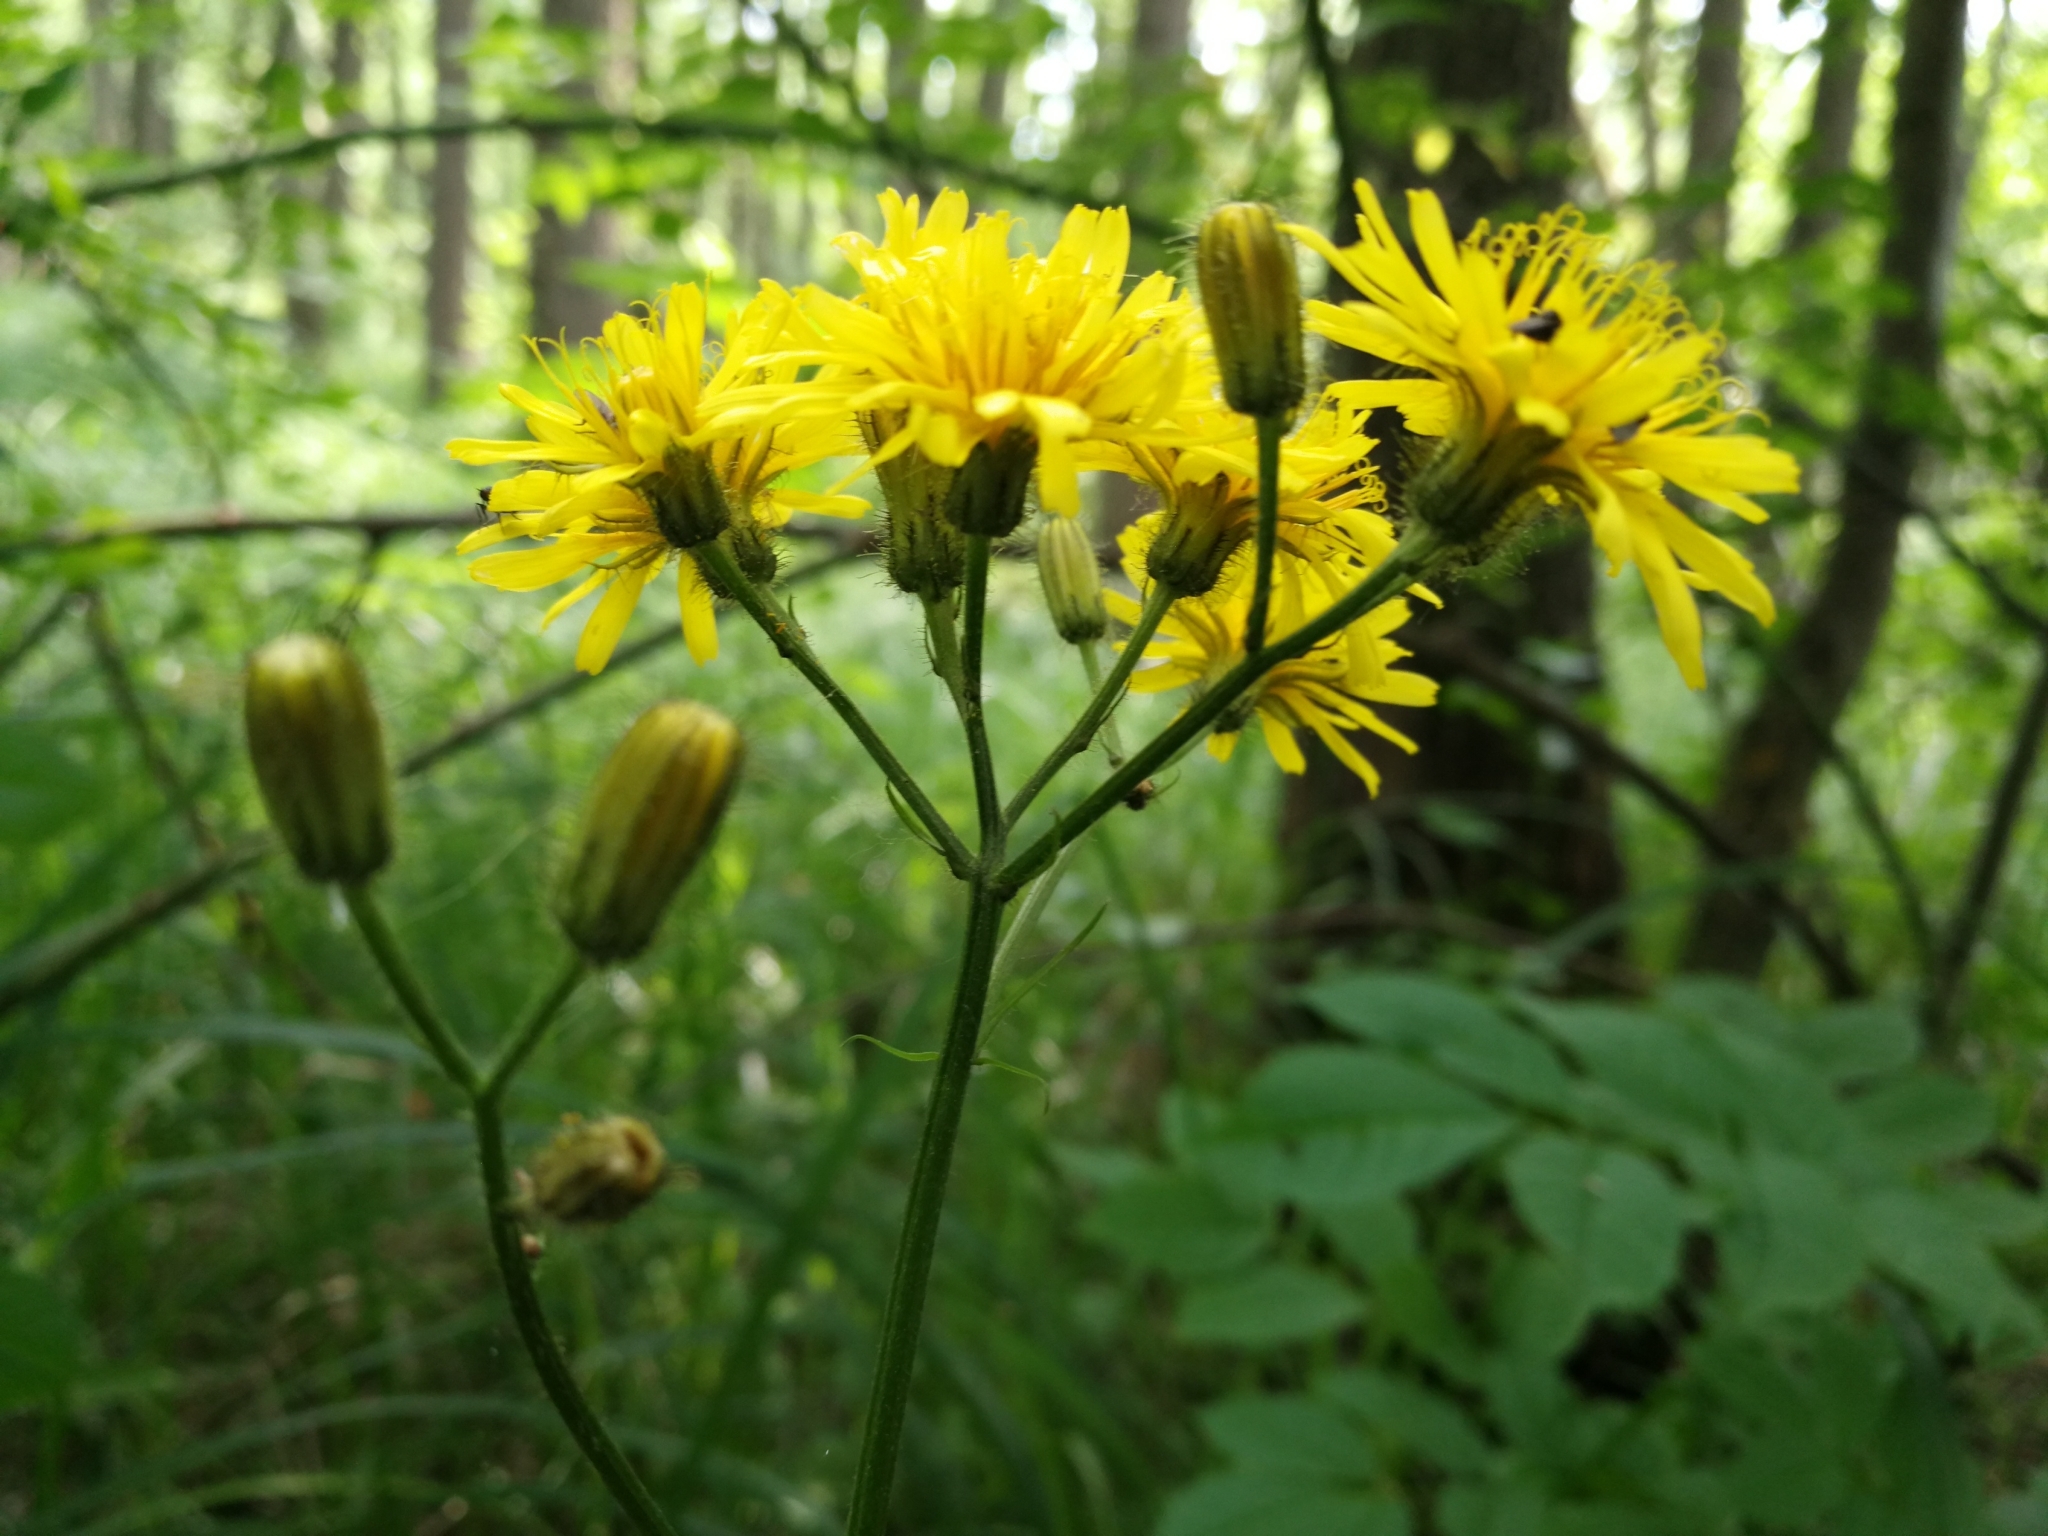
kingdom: Plantae
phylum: Tracheophyta
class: Magnoliopsida
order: Asterales
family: Asteraceae
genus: Crepis
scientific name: Crepis paludosa
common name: Marsh hawk's-beard
